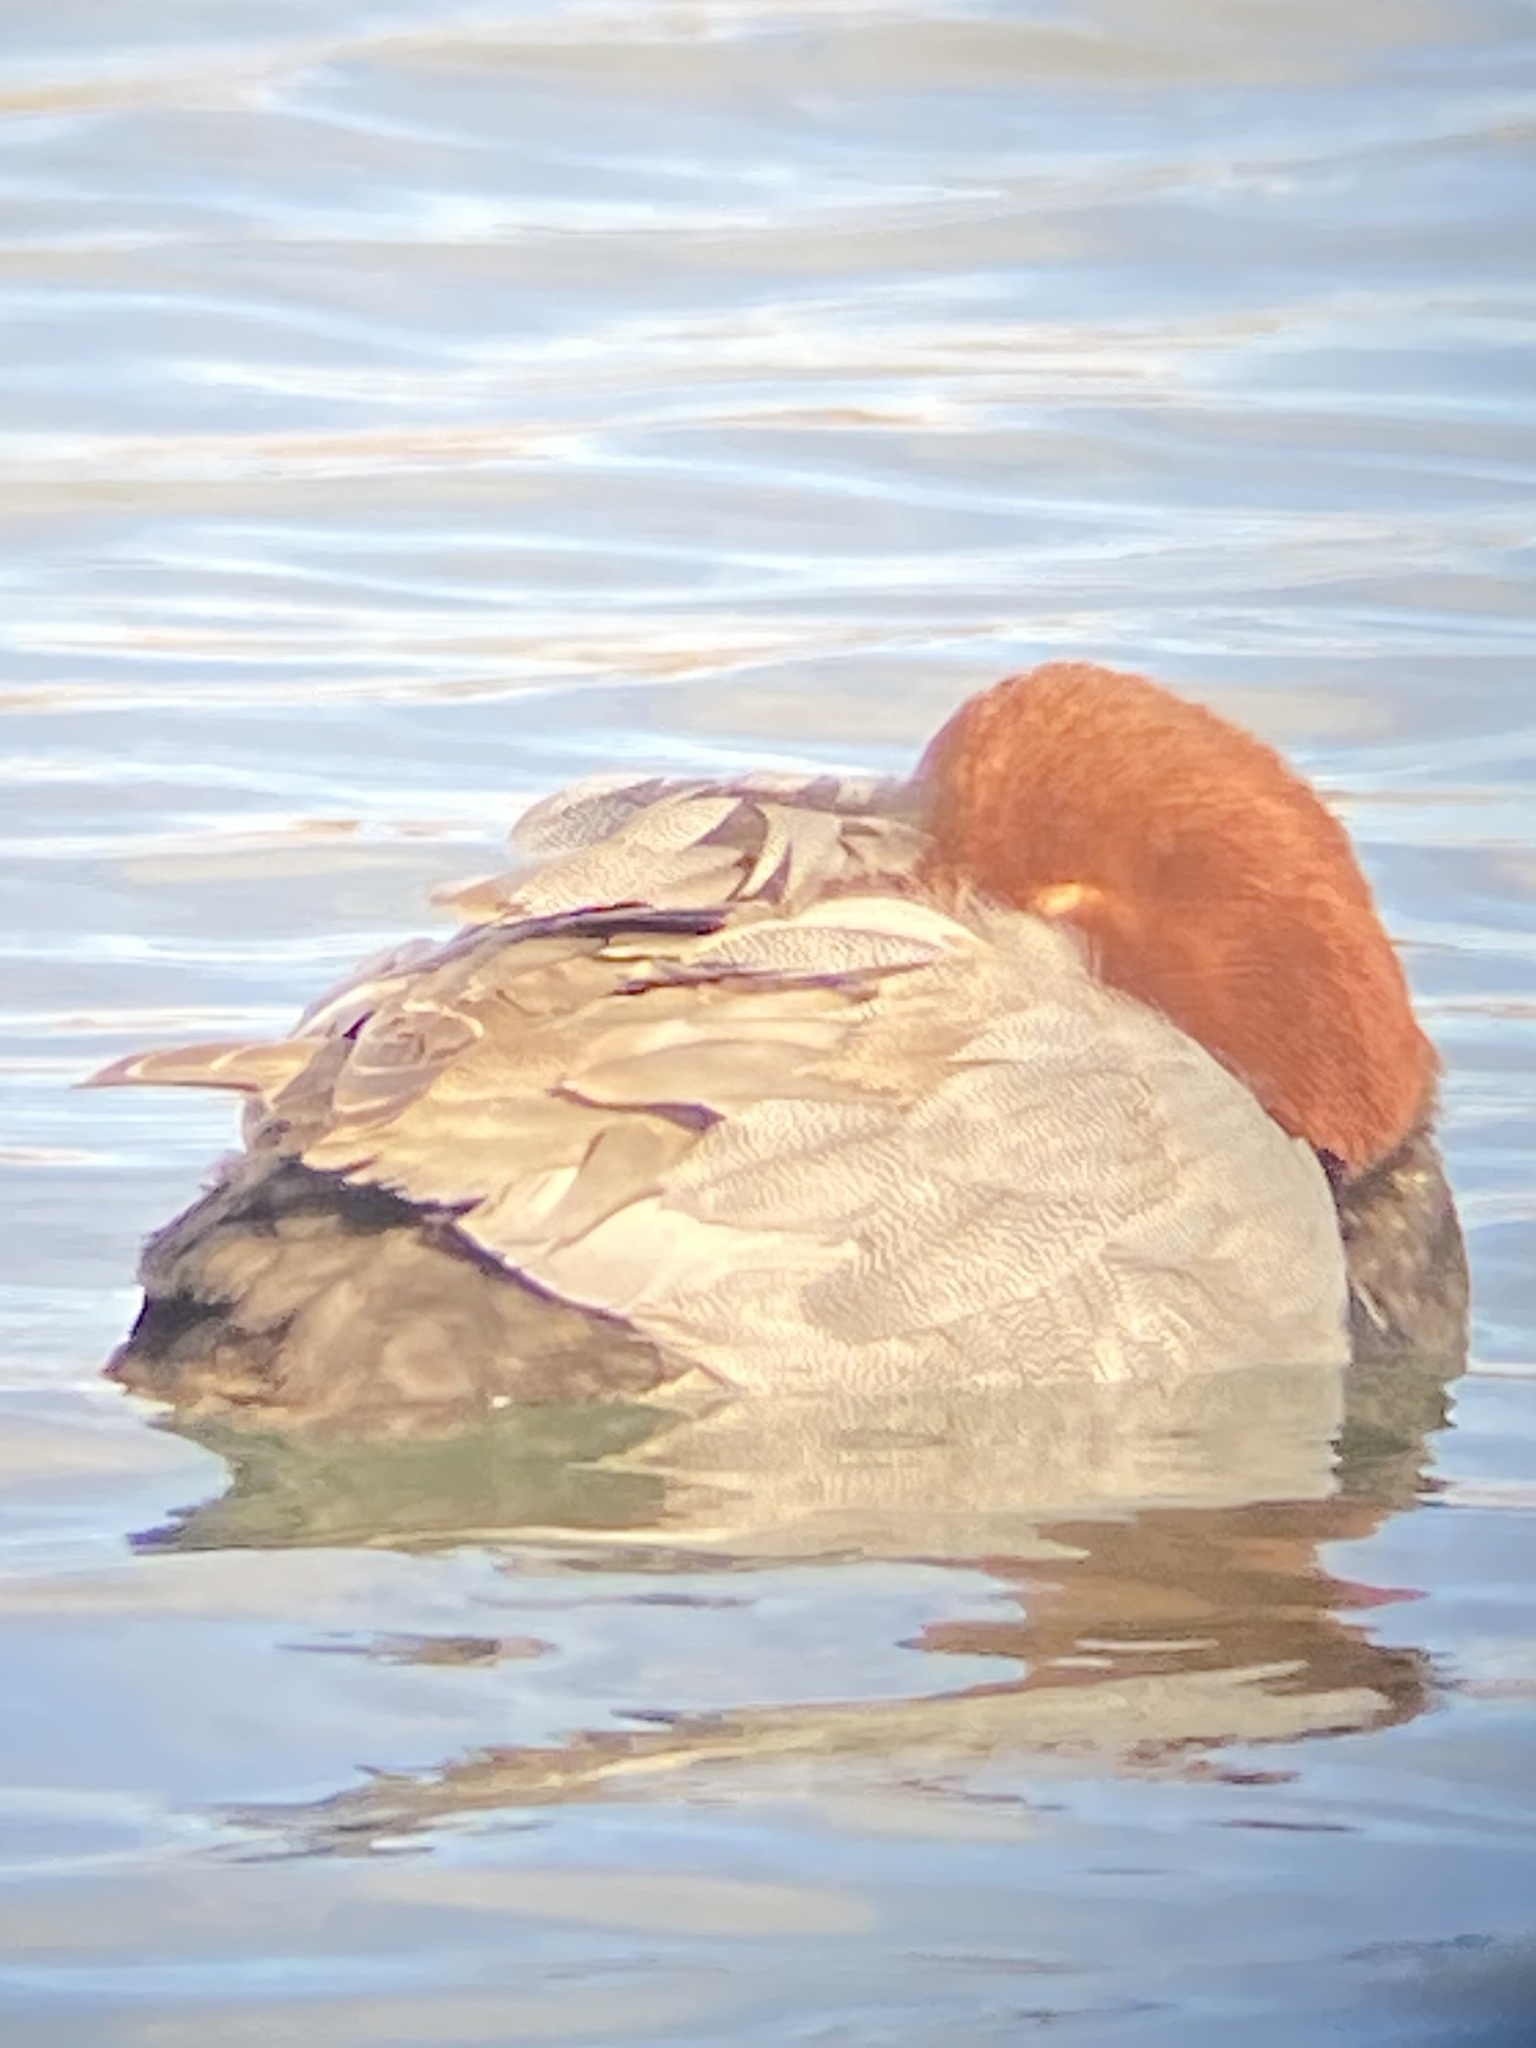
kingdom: Animalia
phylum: Chordata
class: Aves
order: Anseriformes
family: Anatidae
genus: Aythya
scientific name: Aythya americana
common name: Redhead
